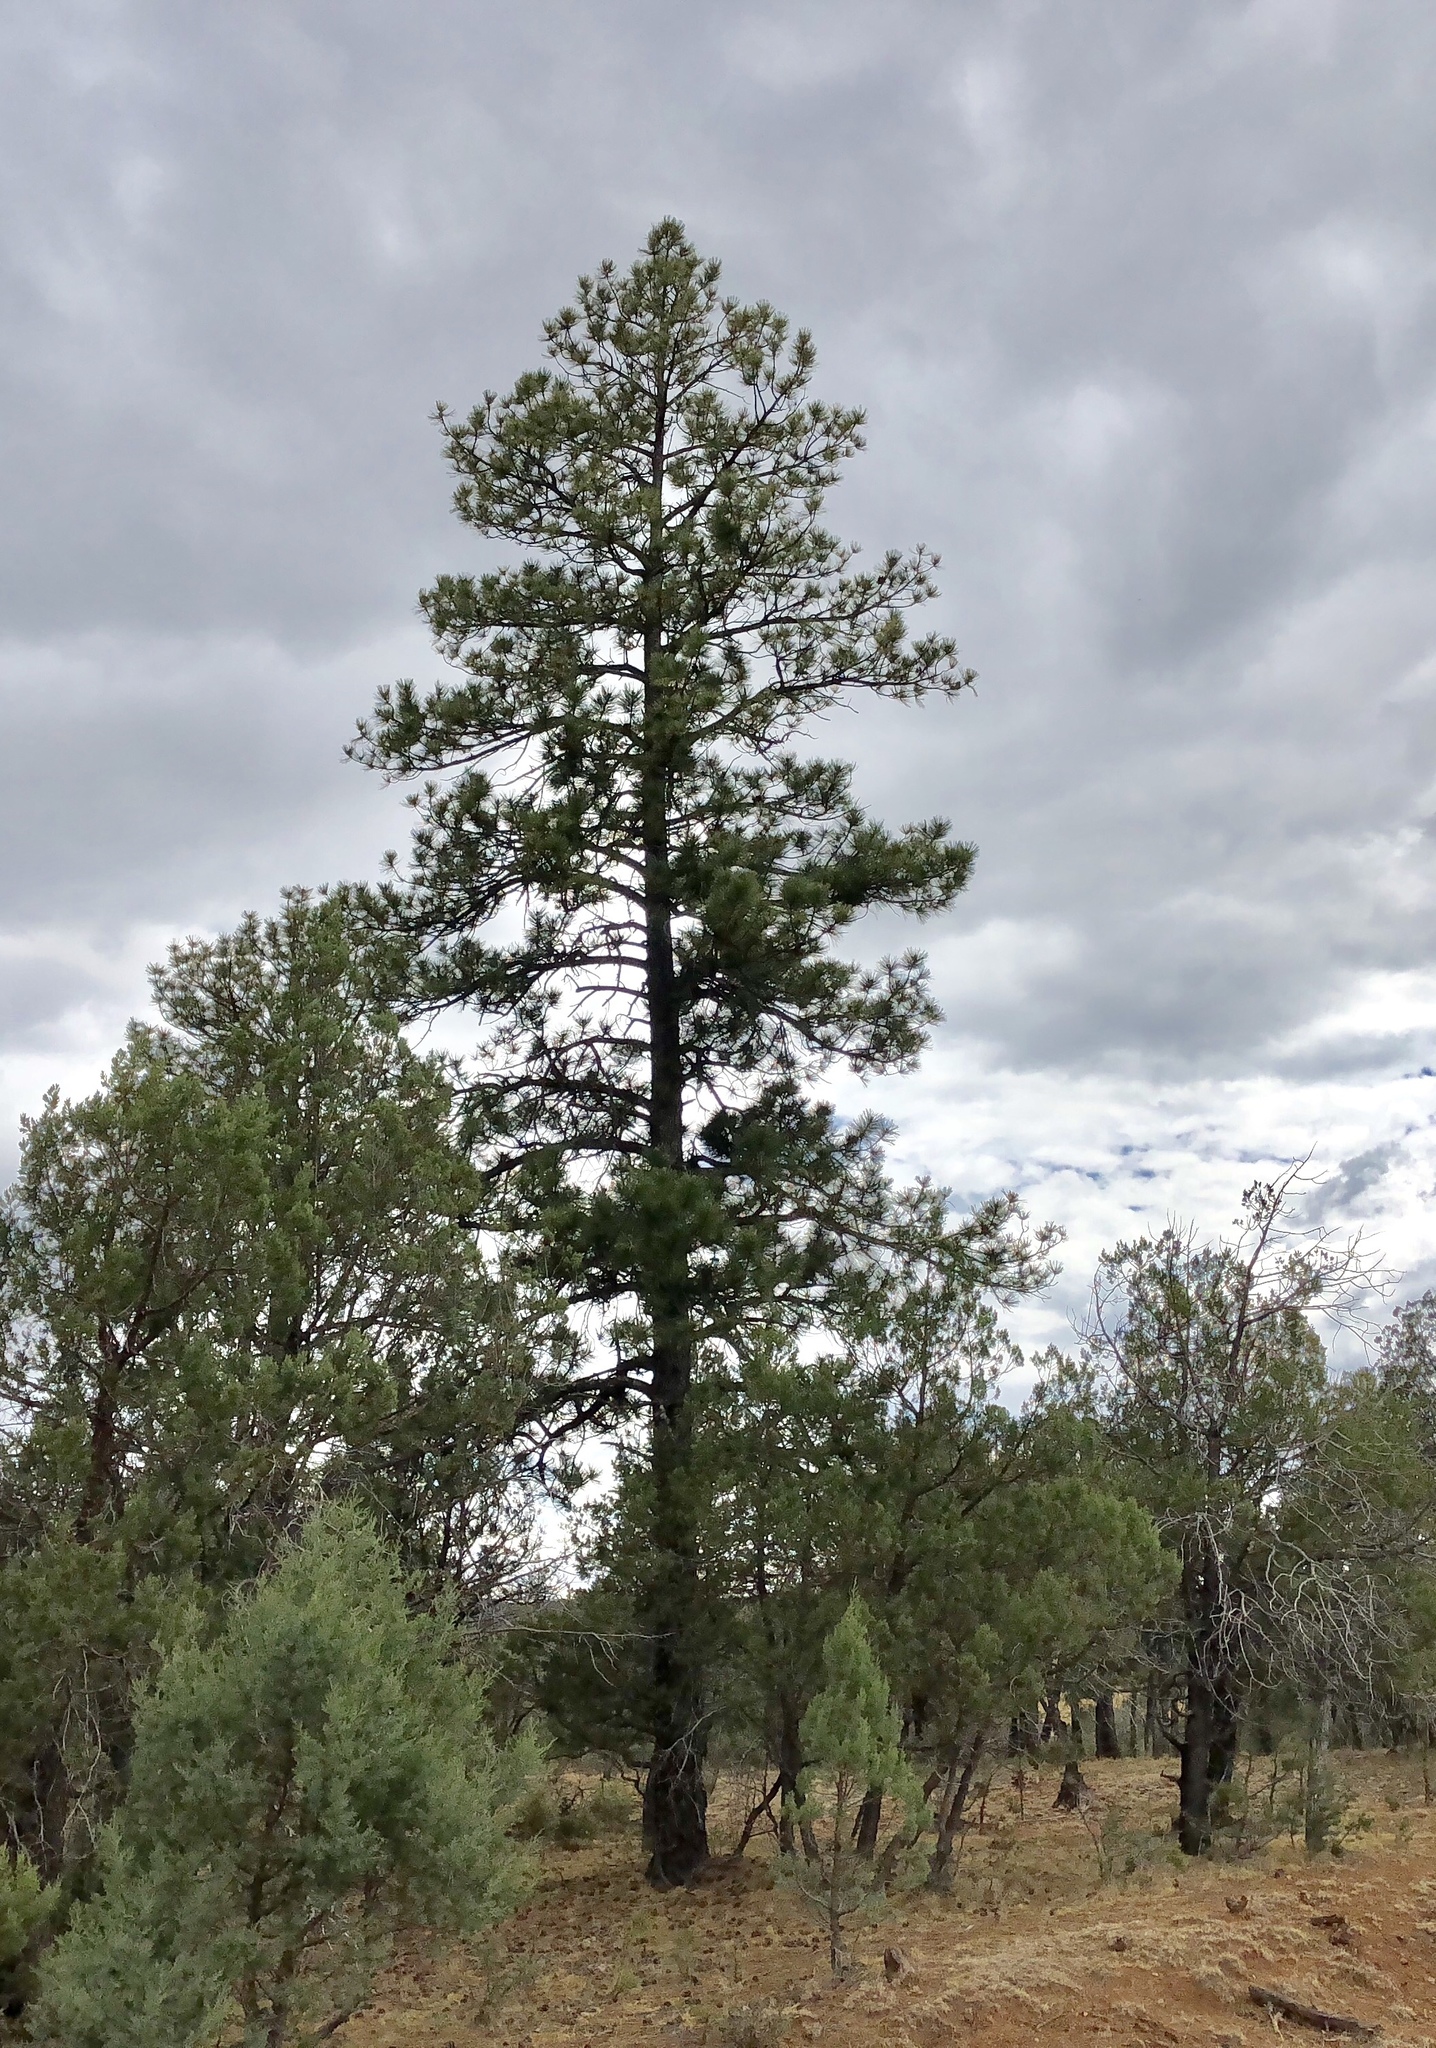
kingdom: Plantae
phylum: Tracheophyta
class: Pinopsida
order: Pinales
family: Pinaceae
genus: Pinus
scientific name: Pinus ponderosa
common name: Western yellow-pine
